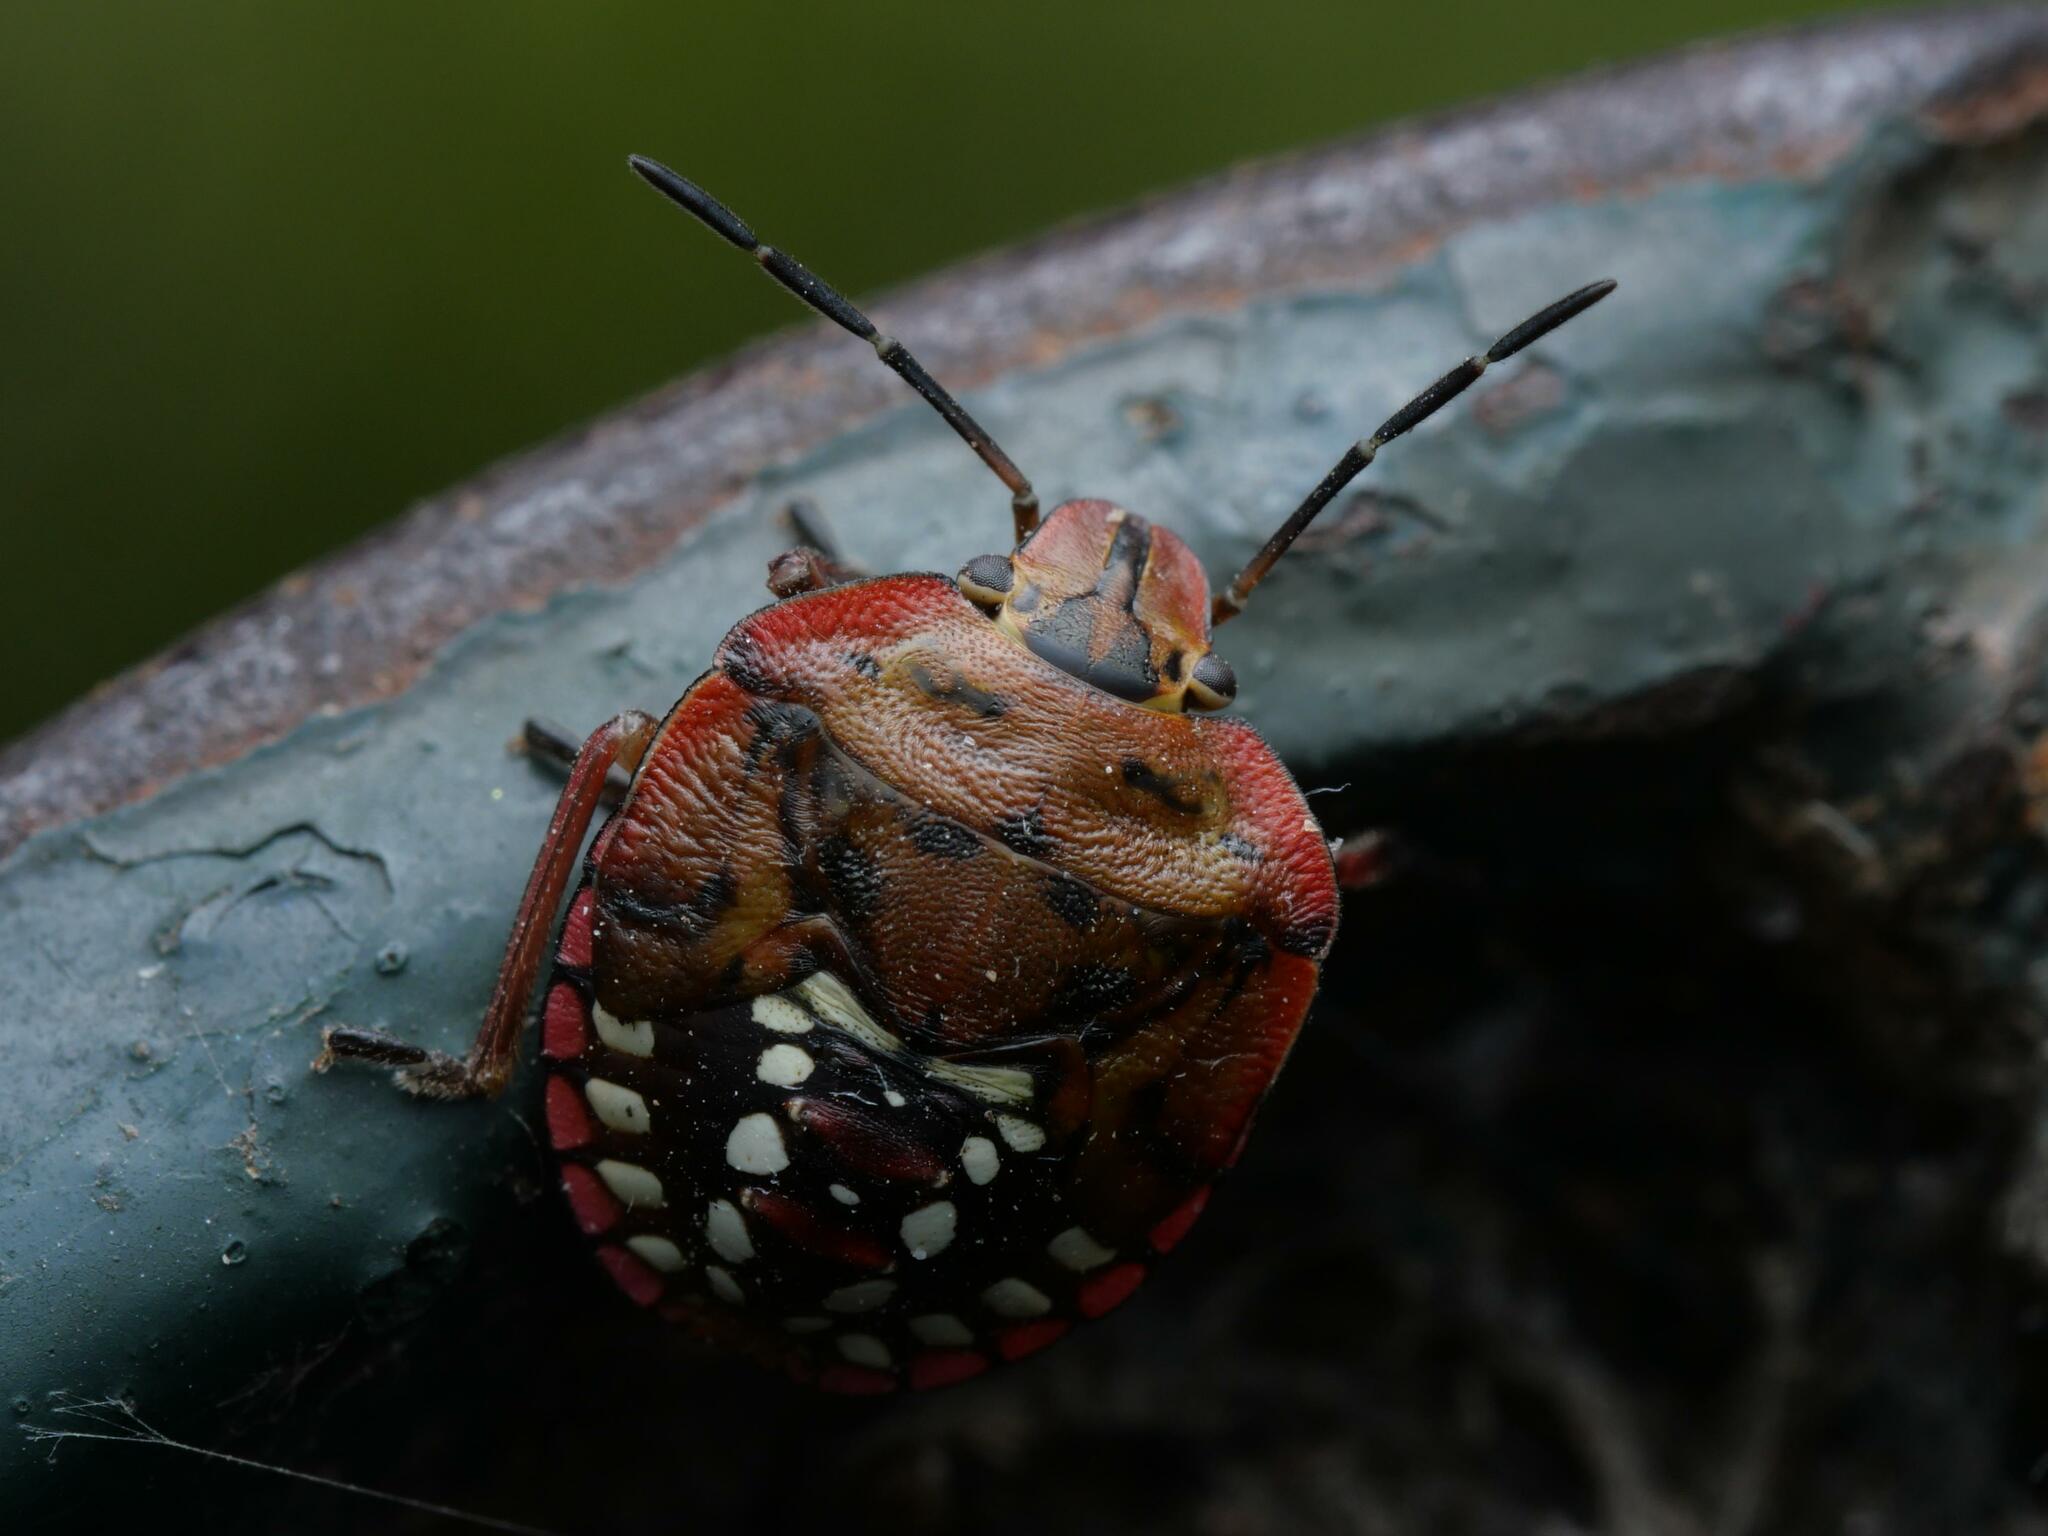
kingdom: Animalia
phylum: Arthropoda
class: Insecta
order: Hemiptera
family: Pentatomidae
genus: Nezara
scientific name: Nezara viridula
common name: Southern green stink bug
